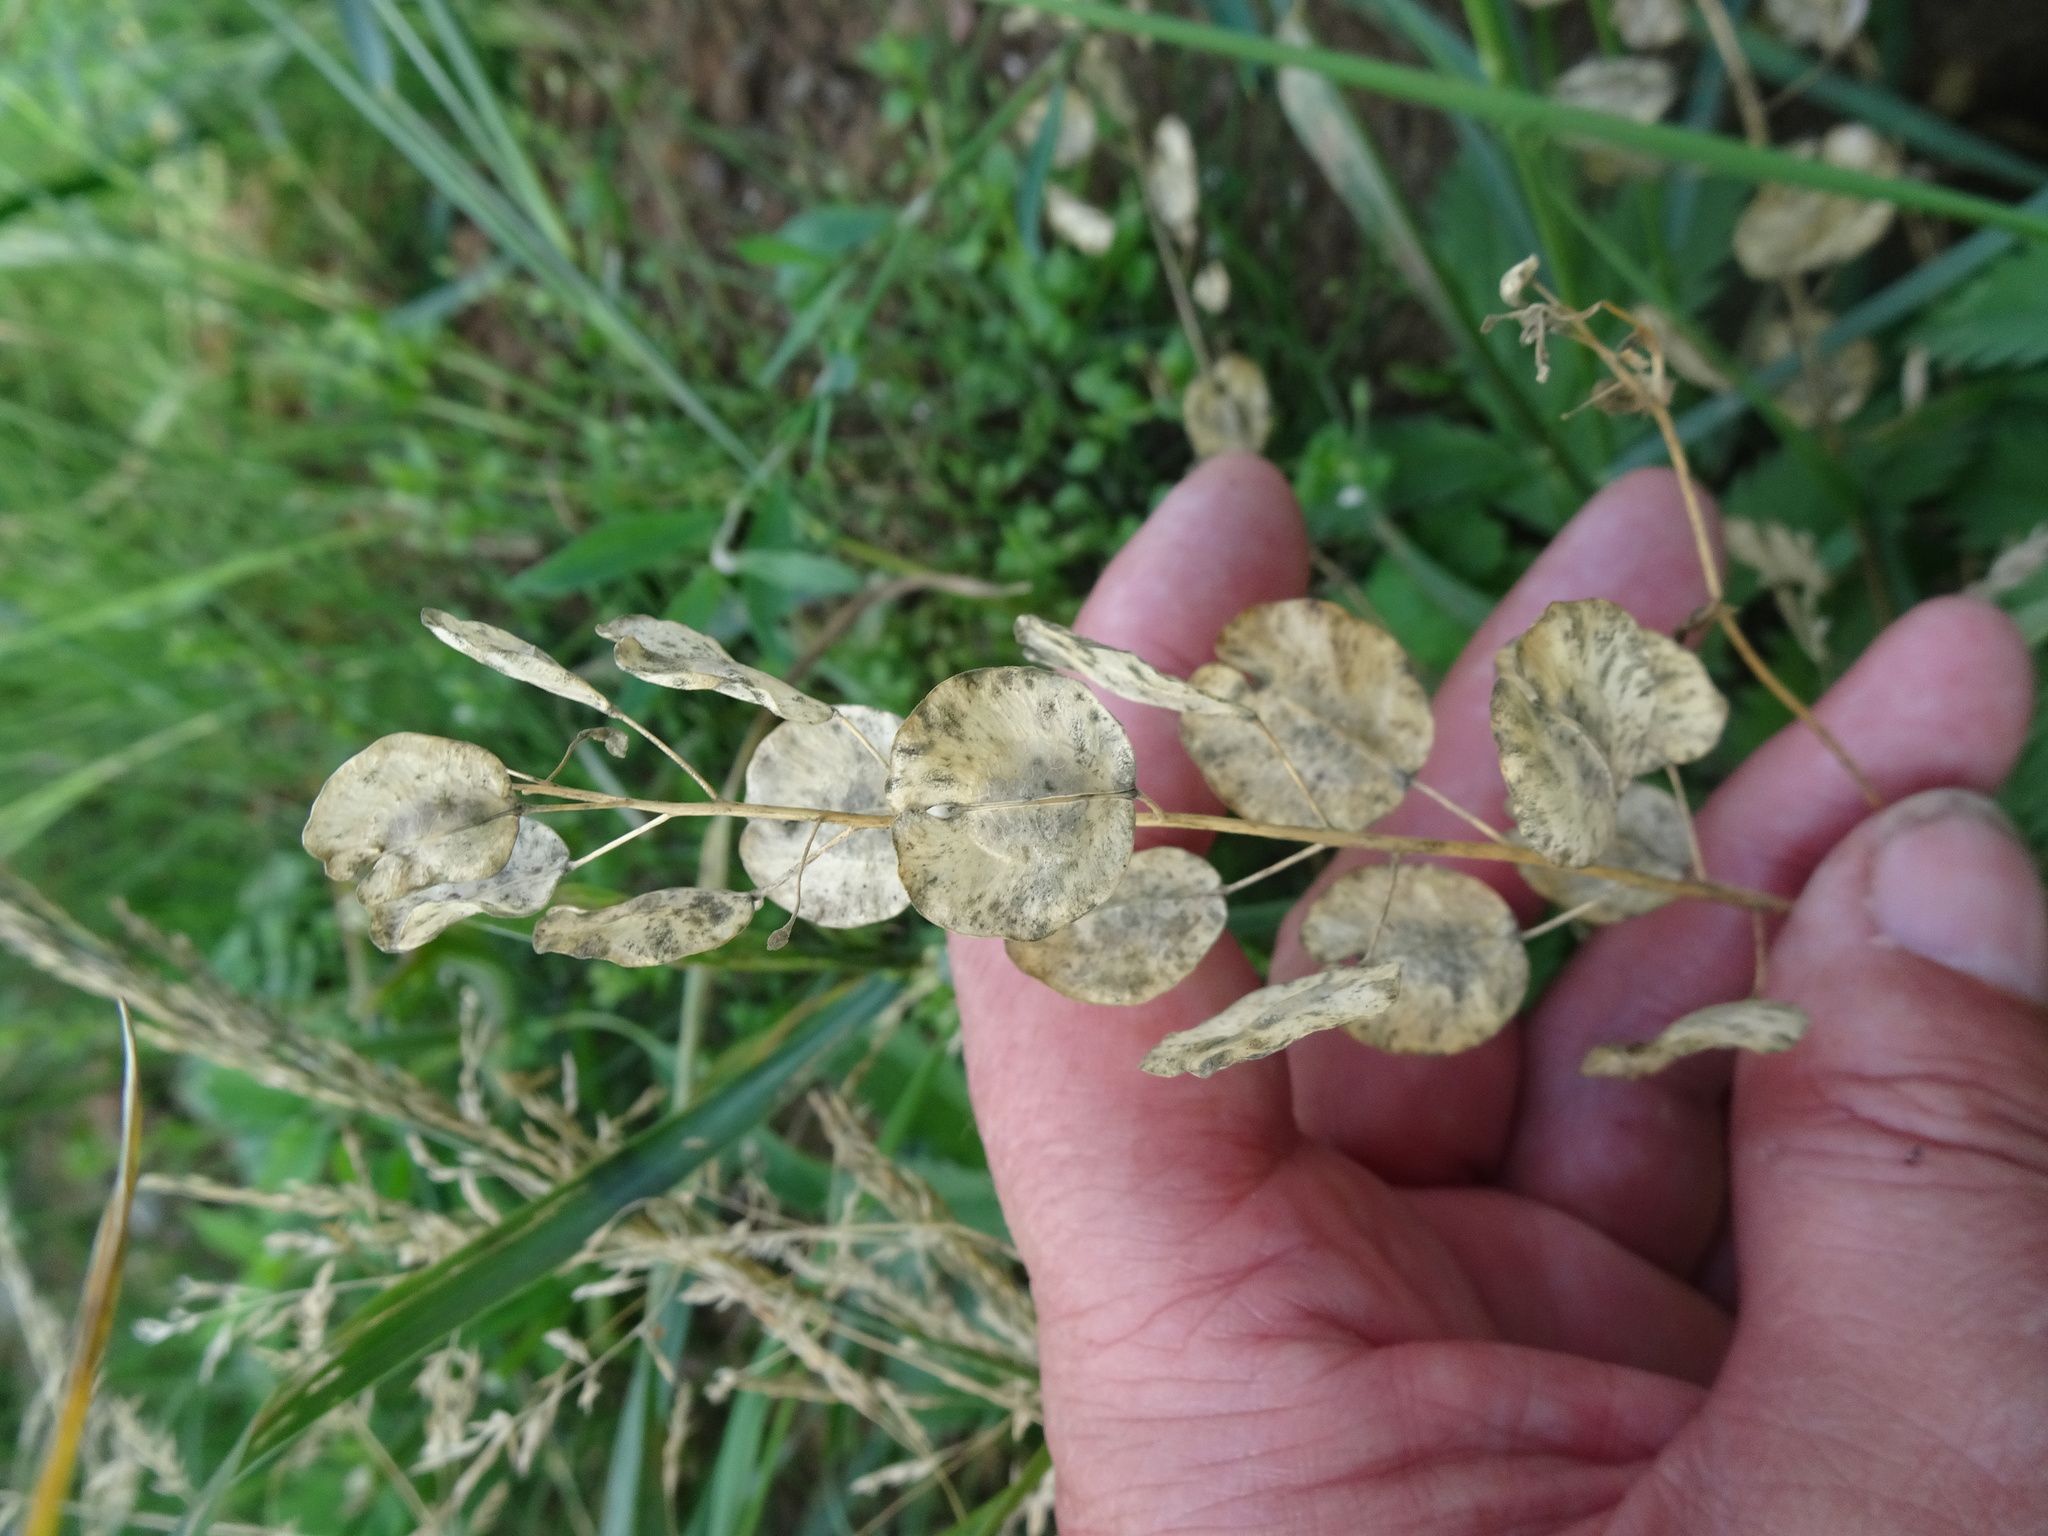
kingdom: Plantae
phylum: Tracheophyta
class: Magnoliopsida
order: Brassicales
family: Brassicaceae
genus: Thlaspi
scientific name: Thlaspi arvense
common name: Field pennycress
